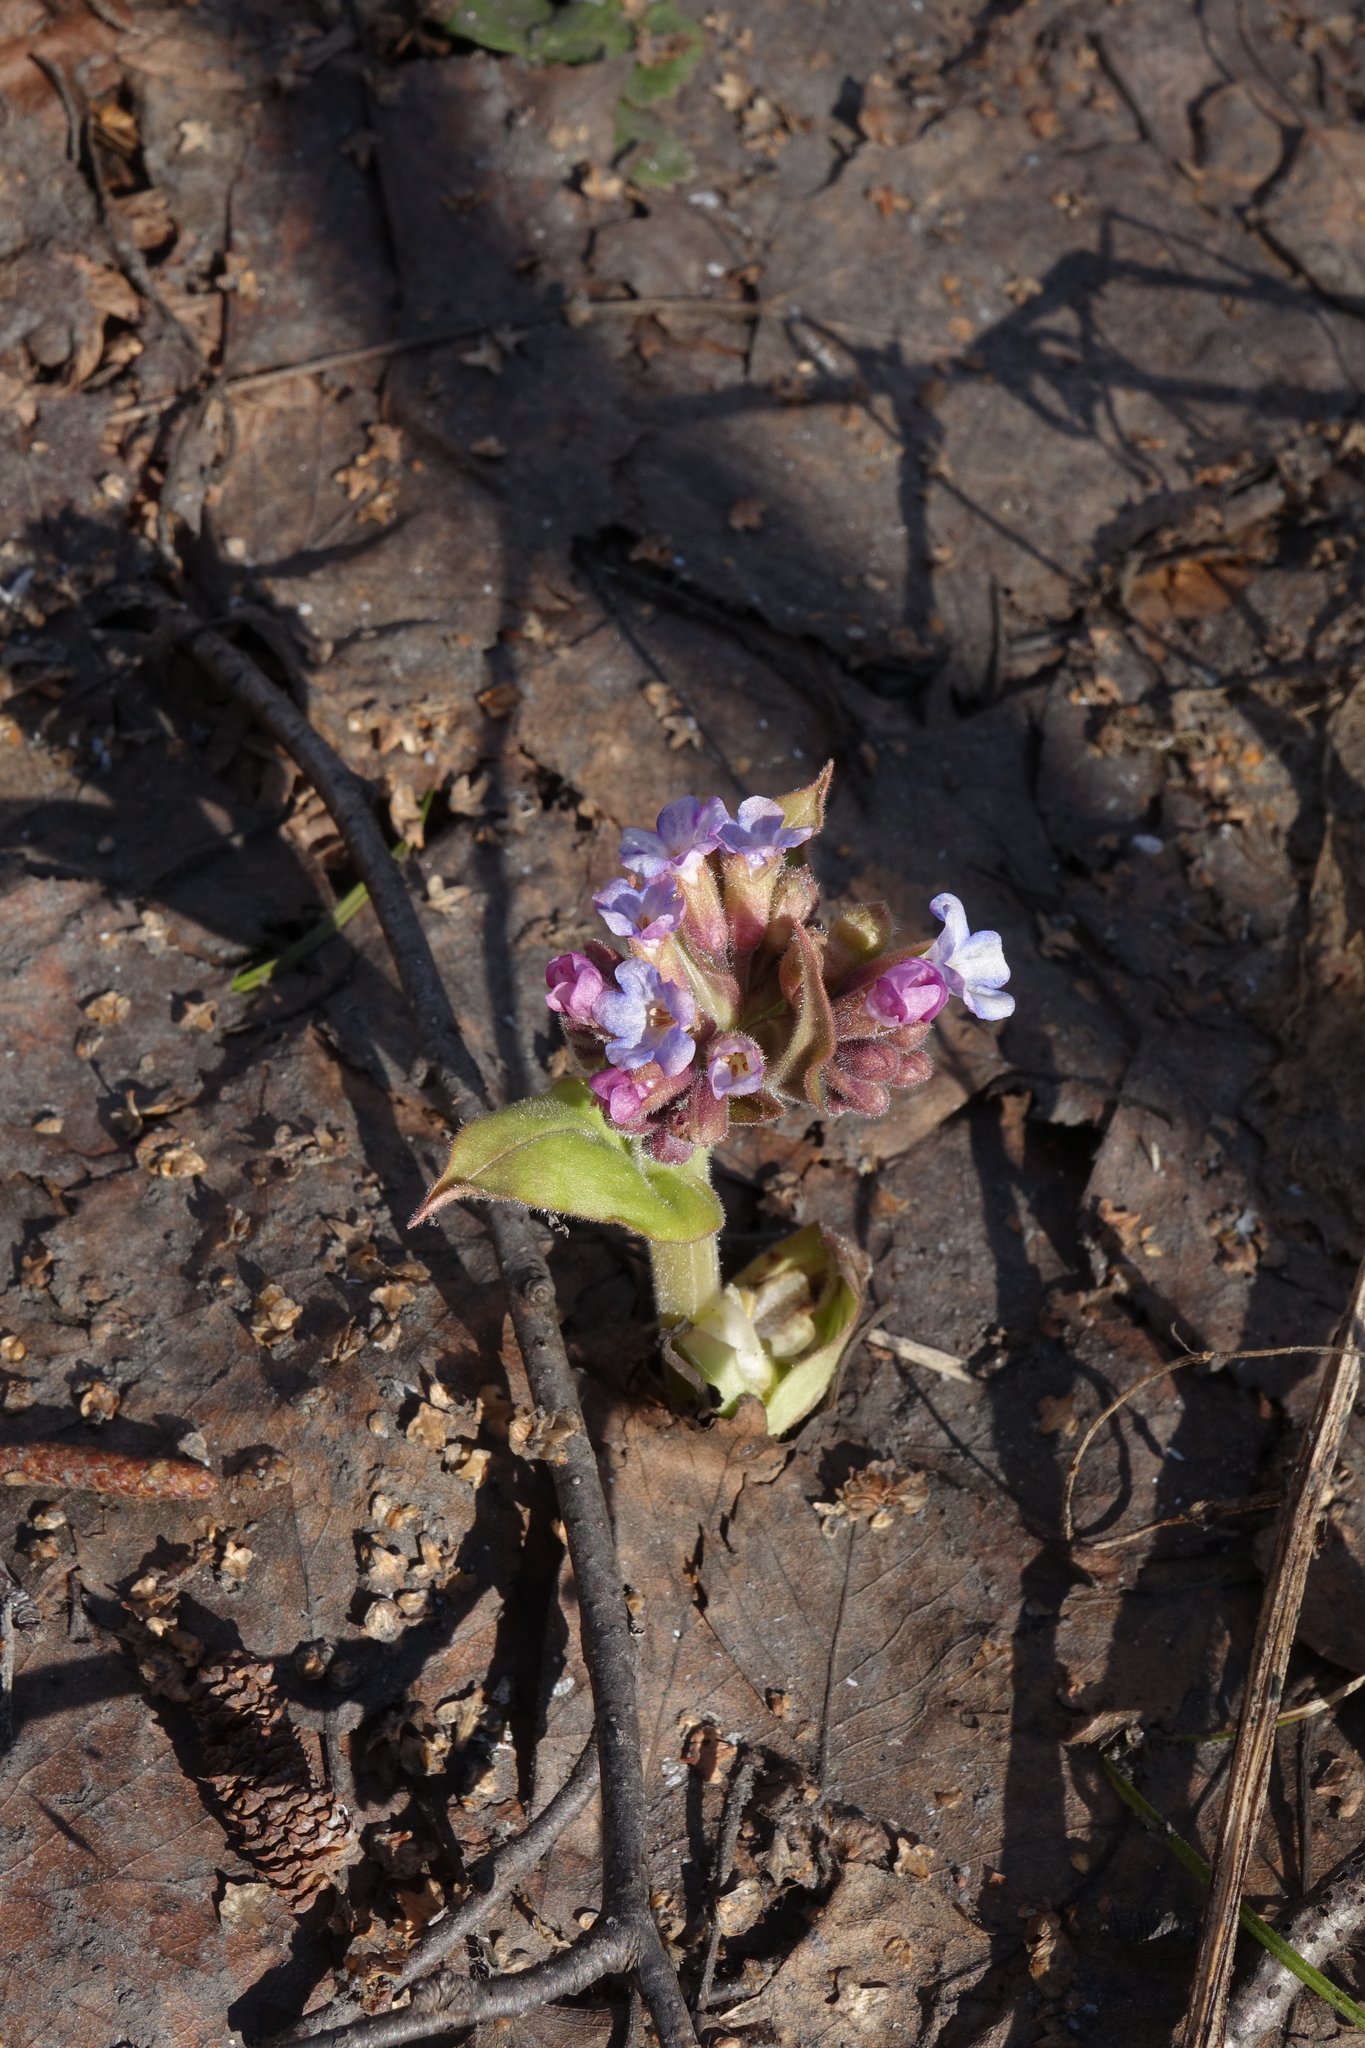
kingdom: Plantae
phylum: Tracheophyta
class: Magnoliopsida
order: Boraginales
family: Boraginaceae
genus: Pulmonaria
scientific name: Pulmonaria mollis
